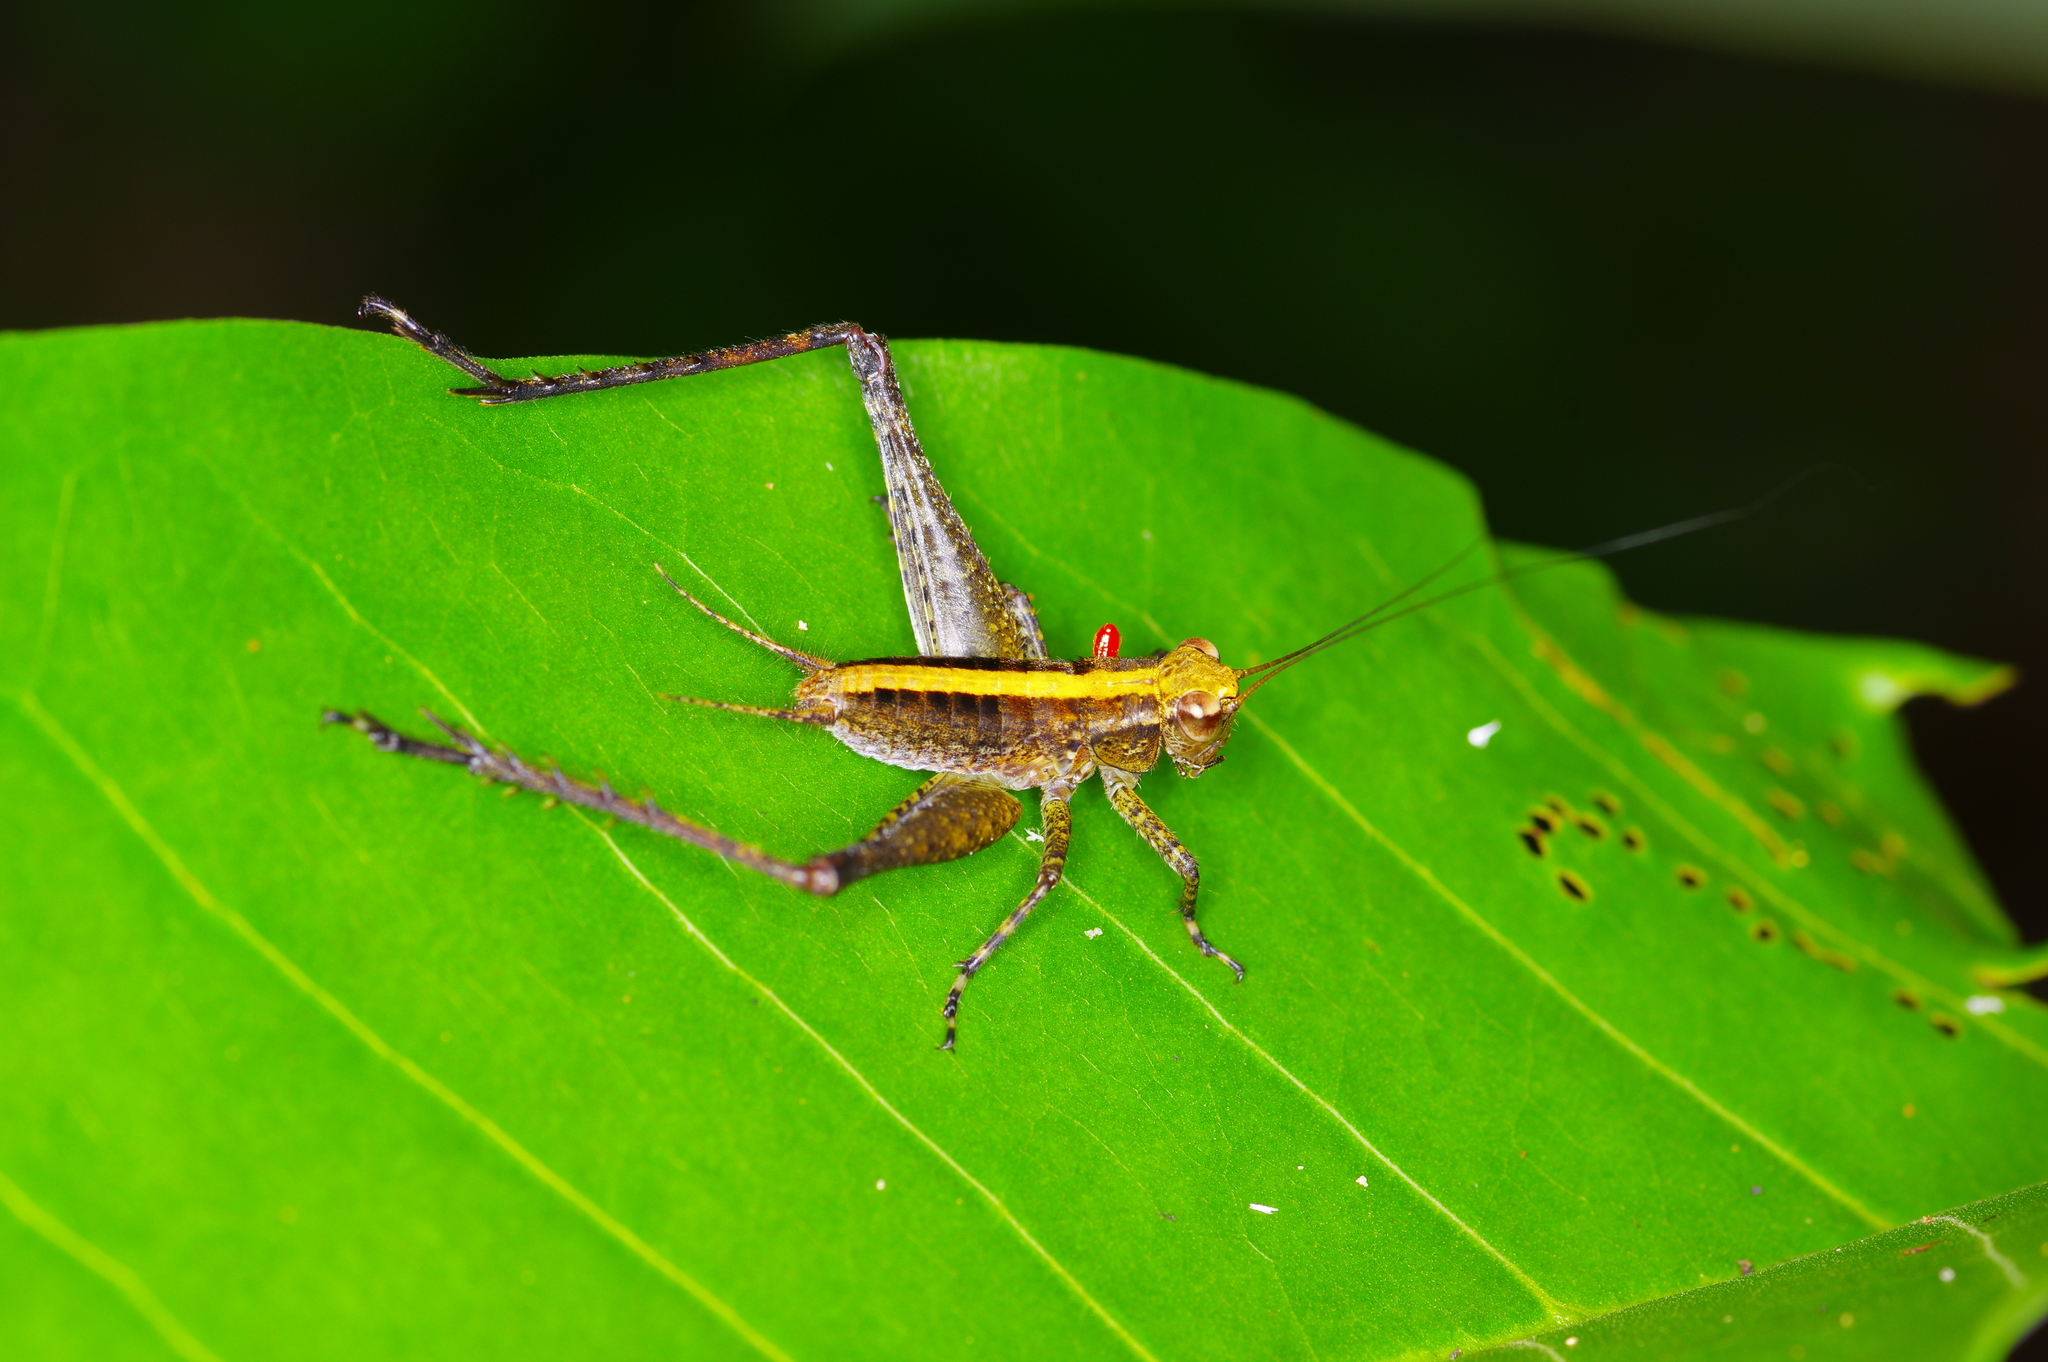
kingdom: Animalia
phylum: Arthropoda
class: Insecta
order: Orthoptera
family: Gryllidae
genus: Eneoptera
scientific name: Eneoptera
